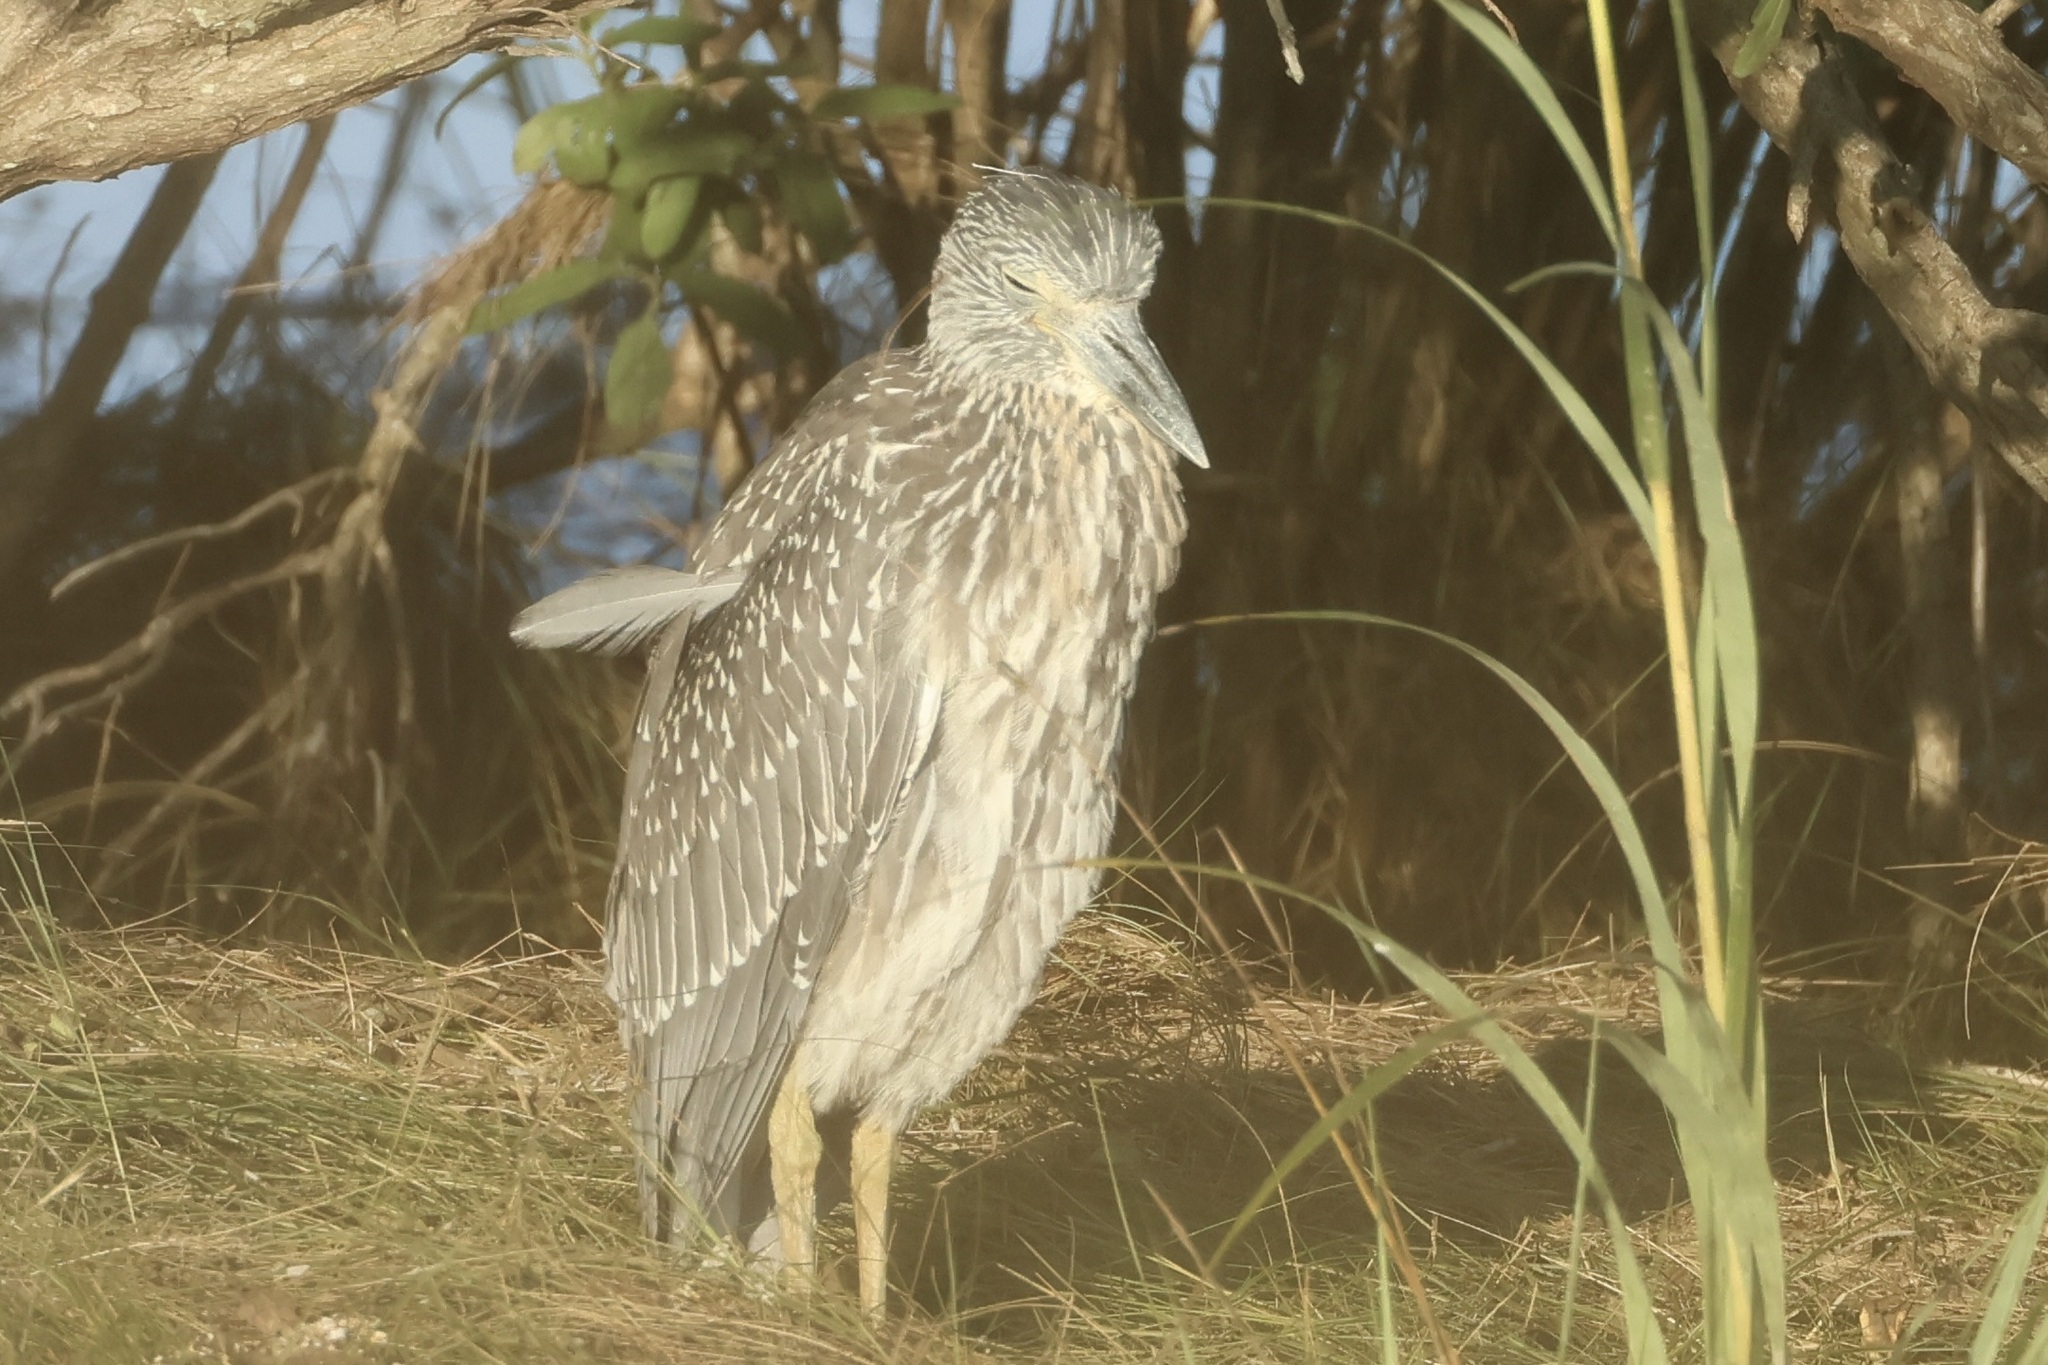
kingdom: Animalia
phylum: Chordata
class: Aves
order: Pelecaniformes
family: Ardeidae
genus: Nyctanassa
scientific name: Nyctanassa violacea
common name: Yellow-crowned night heron
